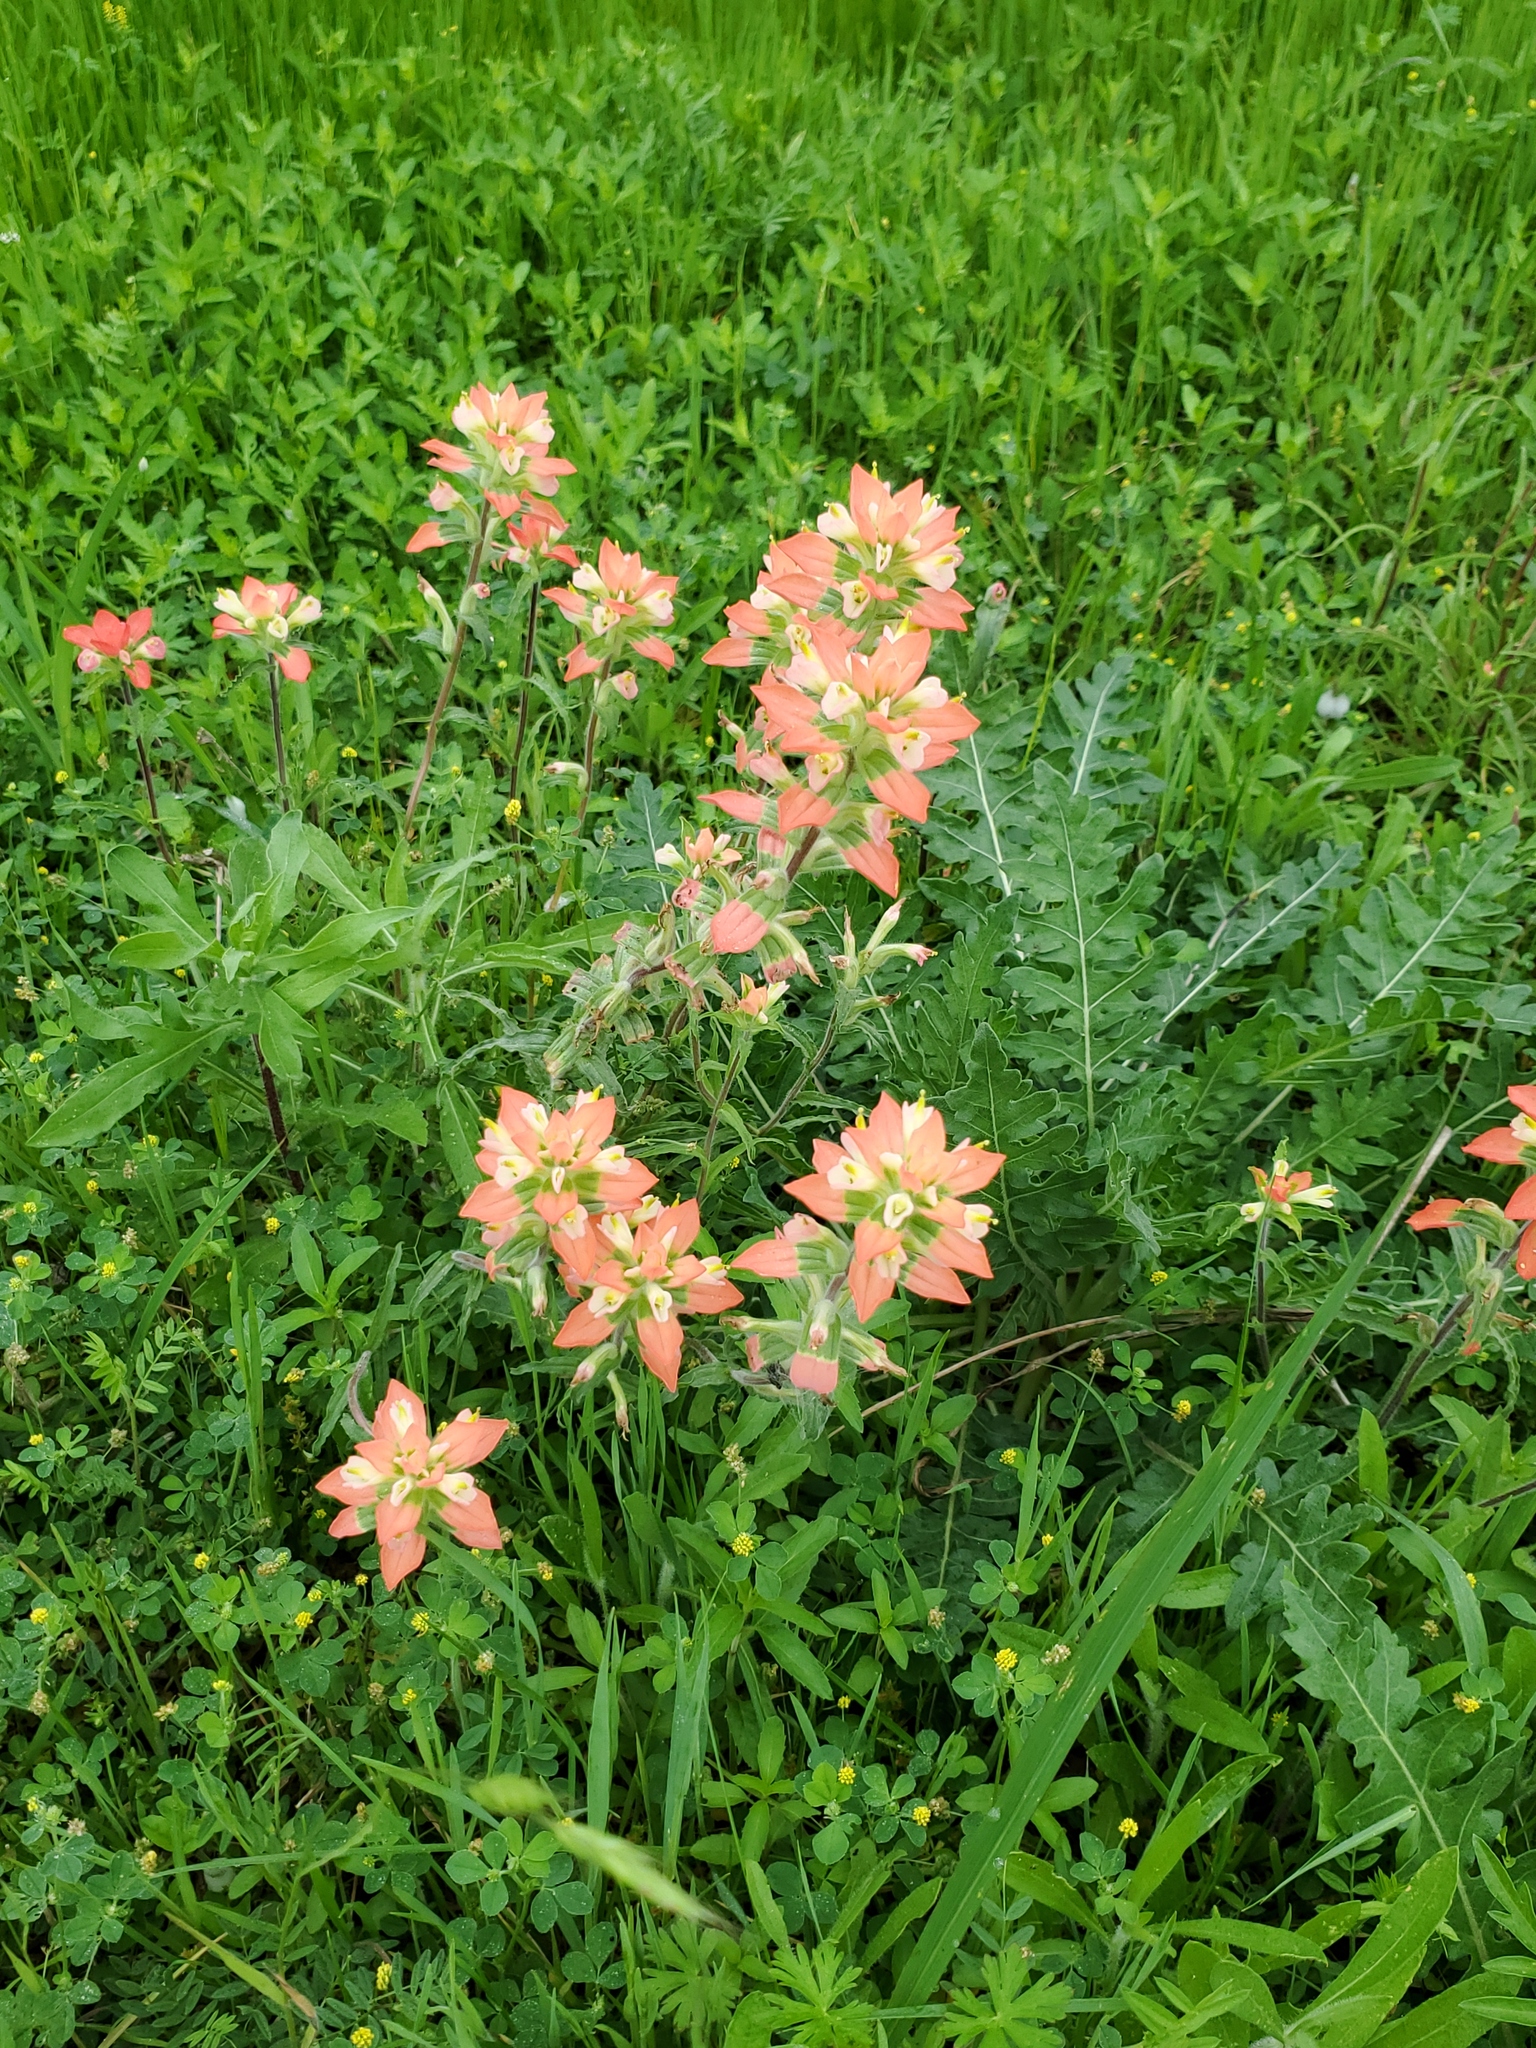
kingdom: Plantae
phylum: Tracheophyta
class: Magnoliopsida
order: Lamiales
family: Orobanchaceae
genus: Castilleja
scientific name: Castilleja indivisa
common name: Texas paintbrush
